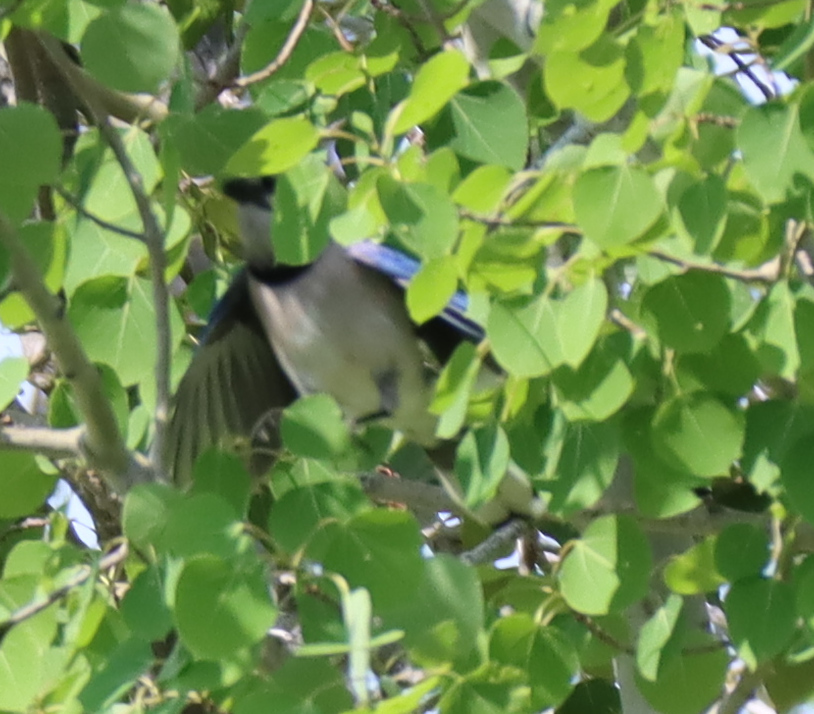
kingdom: Animalia
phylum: Chordata
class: Aves
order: Passeriformes
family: Corvidae
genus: Cyanocitta
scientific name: Cyanocitta cristata
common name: Blue jay
